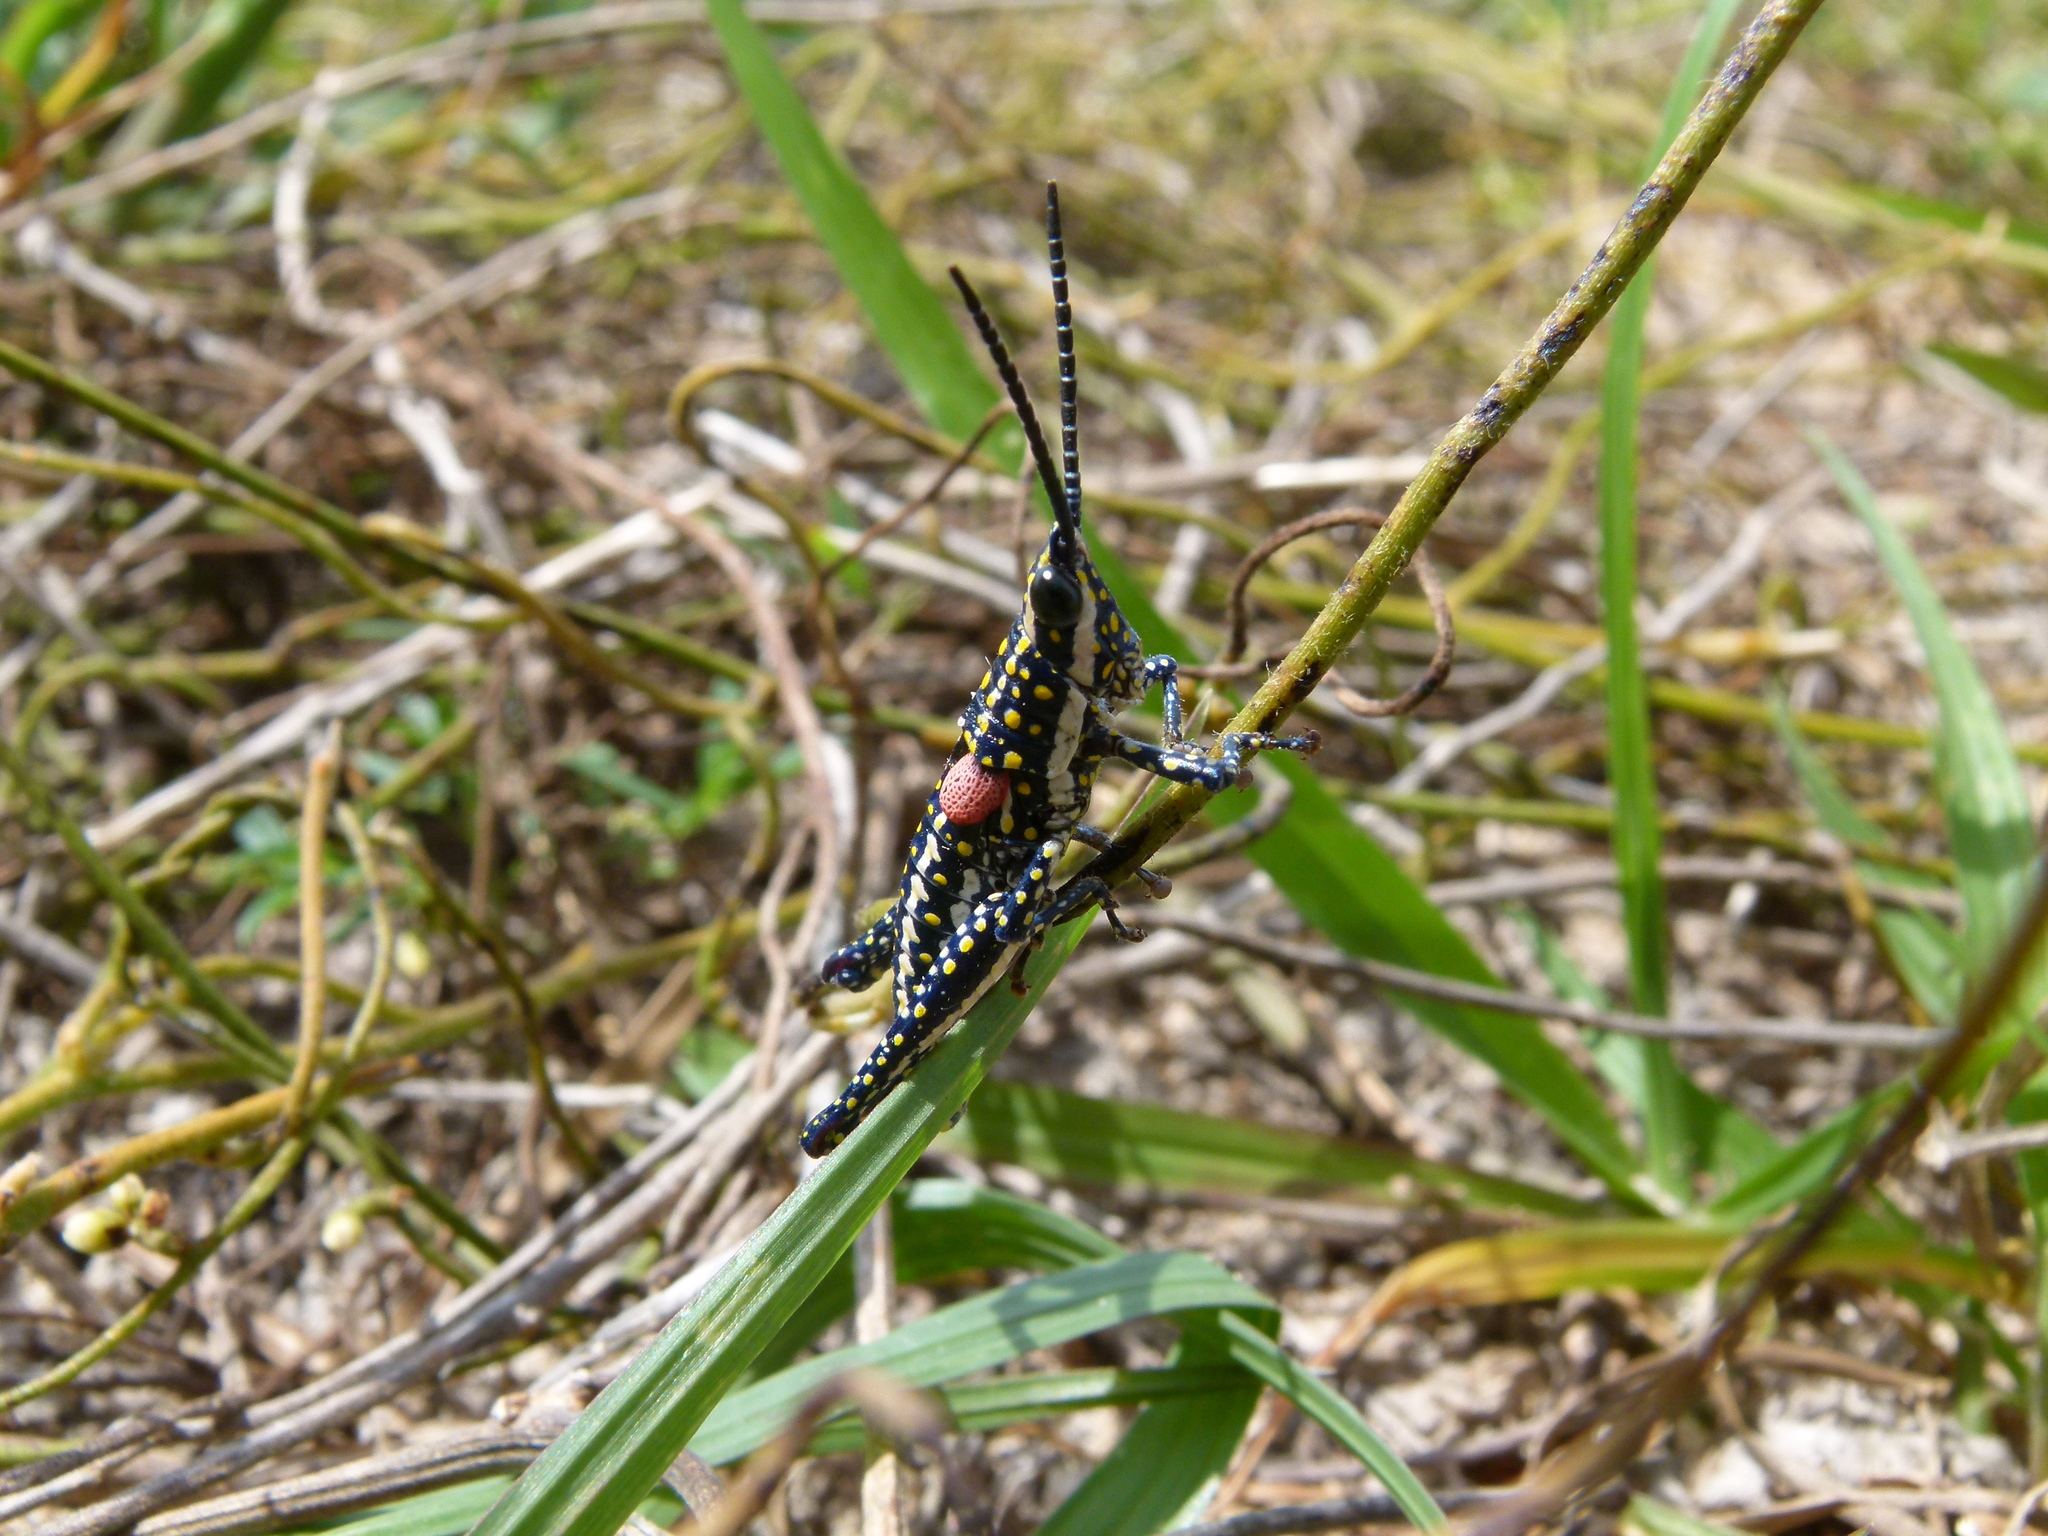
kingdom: Animalia
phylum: Arthropoda
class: Insecta
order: Orthoptera
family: Pyrgomorphidae
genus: Greyacris
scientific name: Greyacris profundesulcata
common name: Queensland spotted pyrgomorph
